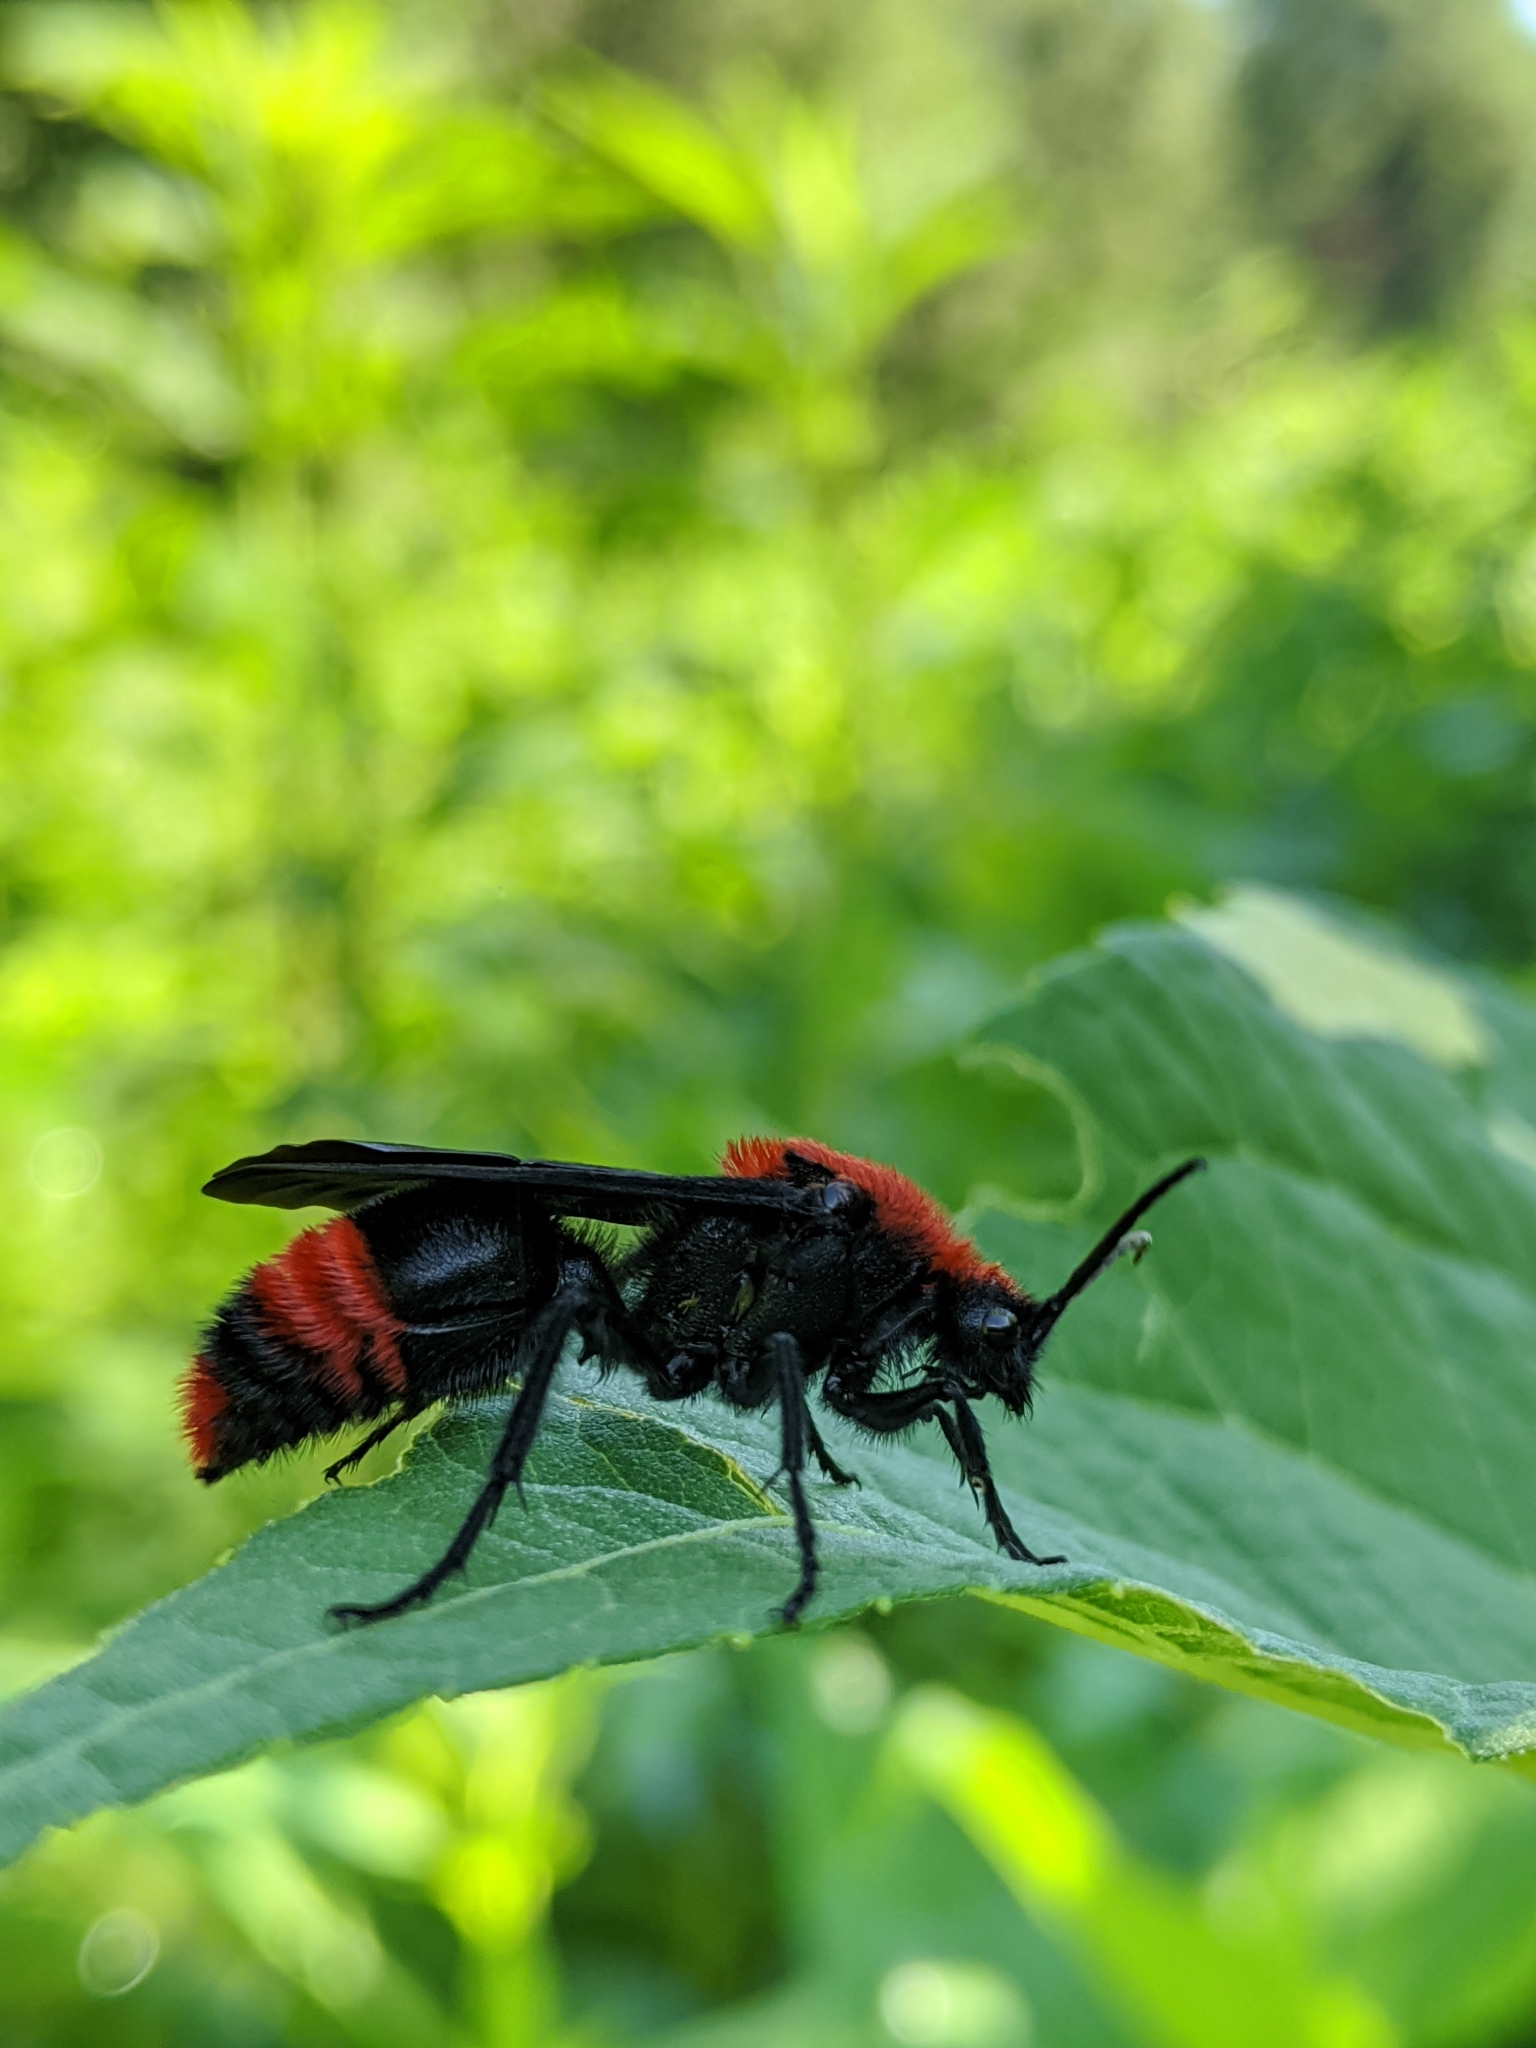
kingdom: Animalia
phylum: Arthropoda
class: Insecta
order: Hymenoptera
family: Mutillidae
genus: Dasymutilla
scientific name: Dasymutilla occidentalis
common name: Common eastern velvet ant
